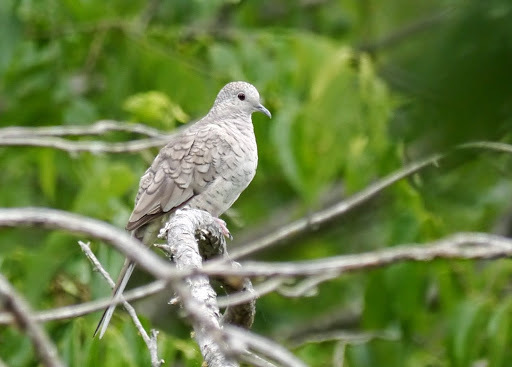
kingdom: Animalia
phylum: Chordata
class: Aves
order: Columbiformes
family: Columbidae
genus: Columbina
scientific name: Columbina inca
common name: Inca dove
